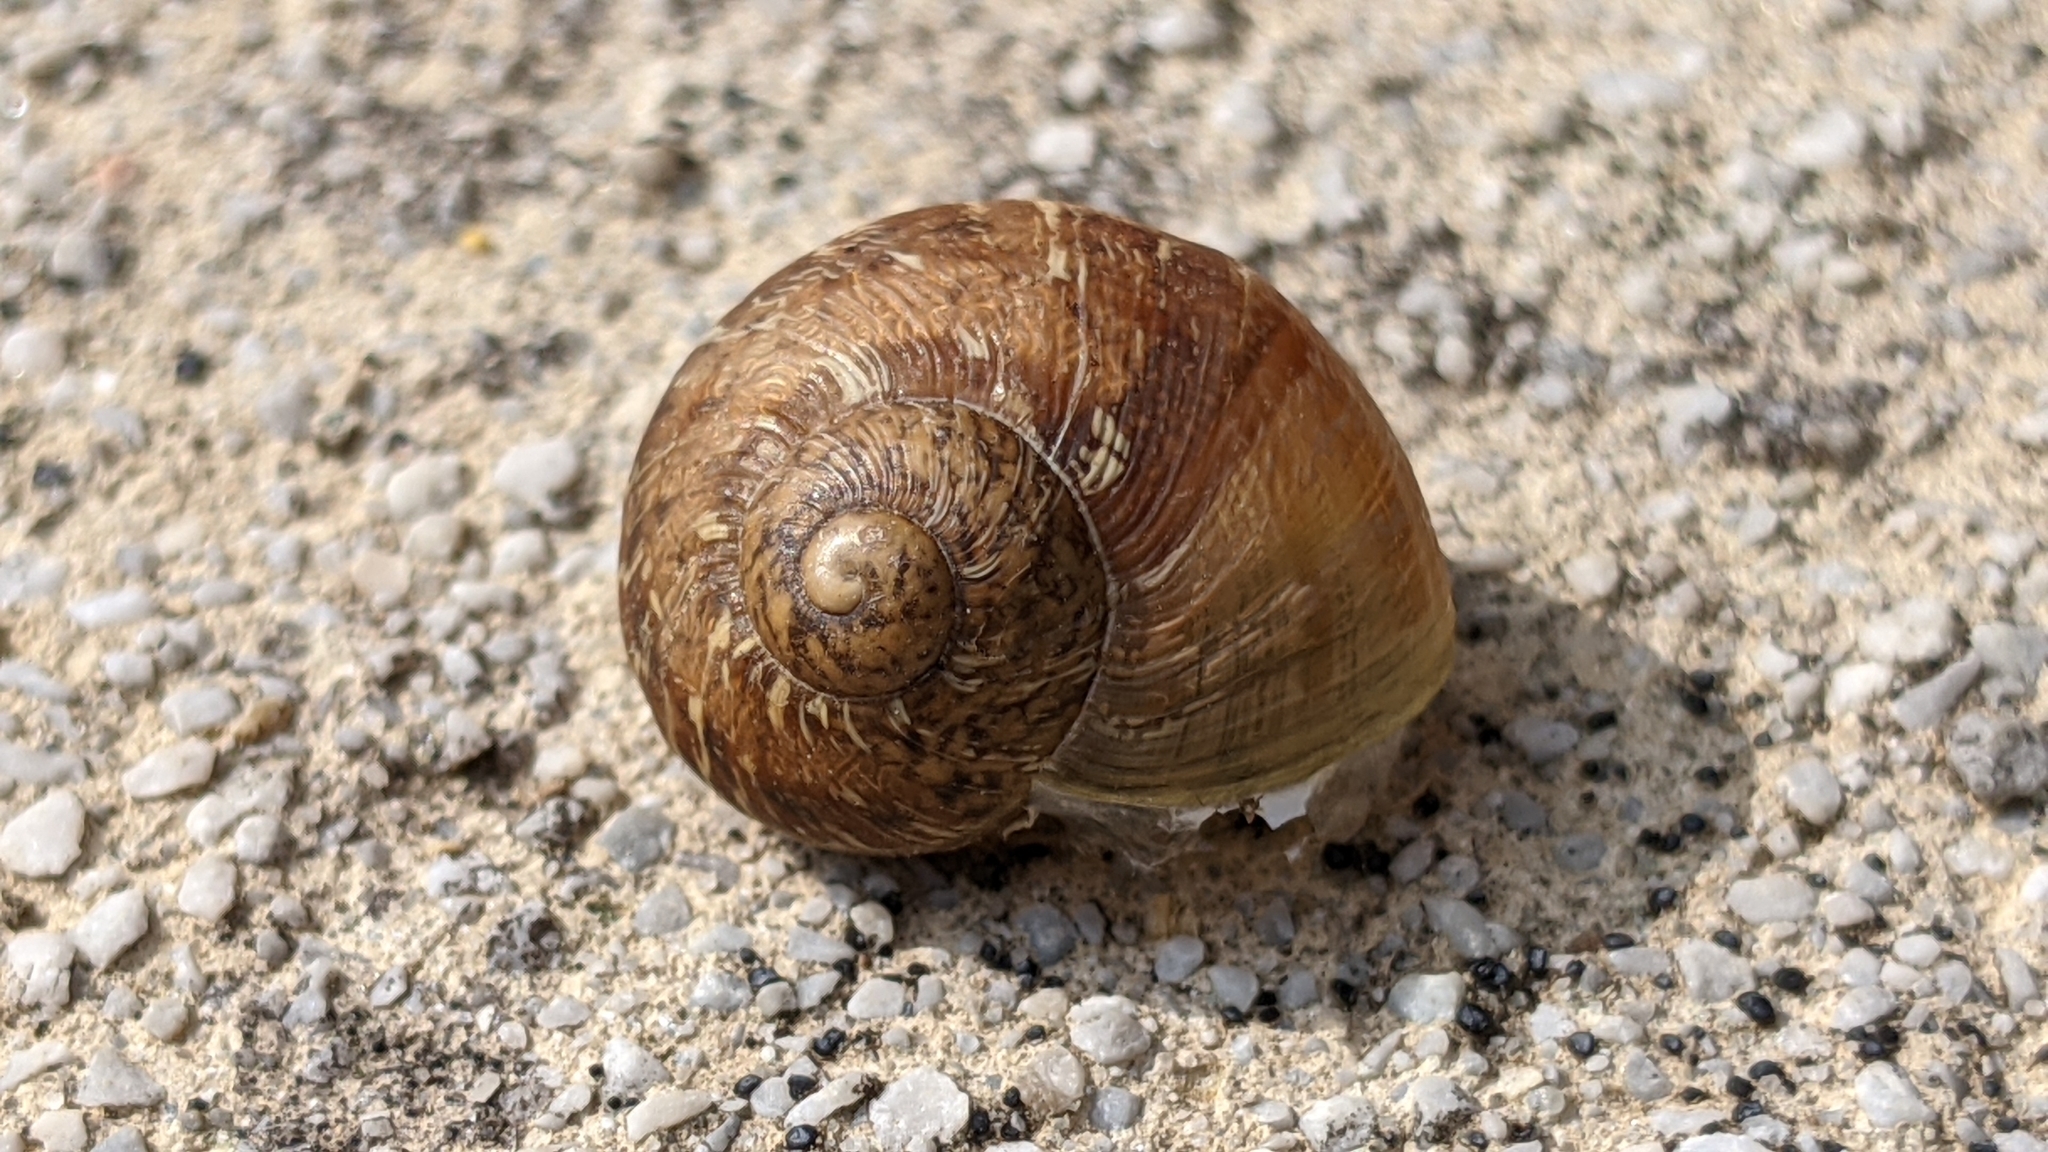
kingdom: Animalia
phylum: Mollusca
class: Gastropoda
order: Stylommatophora
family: Helicidae
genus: Cornu
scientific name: Cornu aspersum
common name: Brown garden snail
